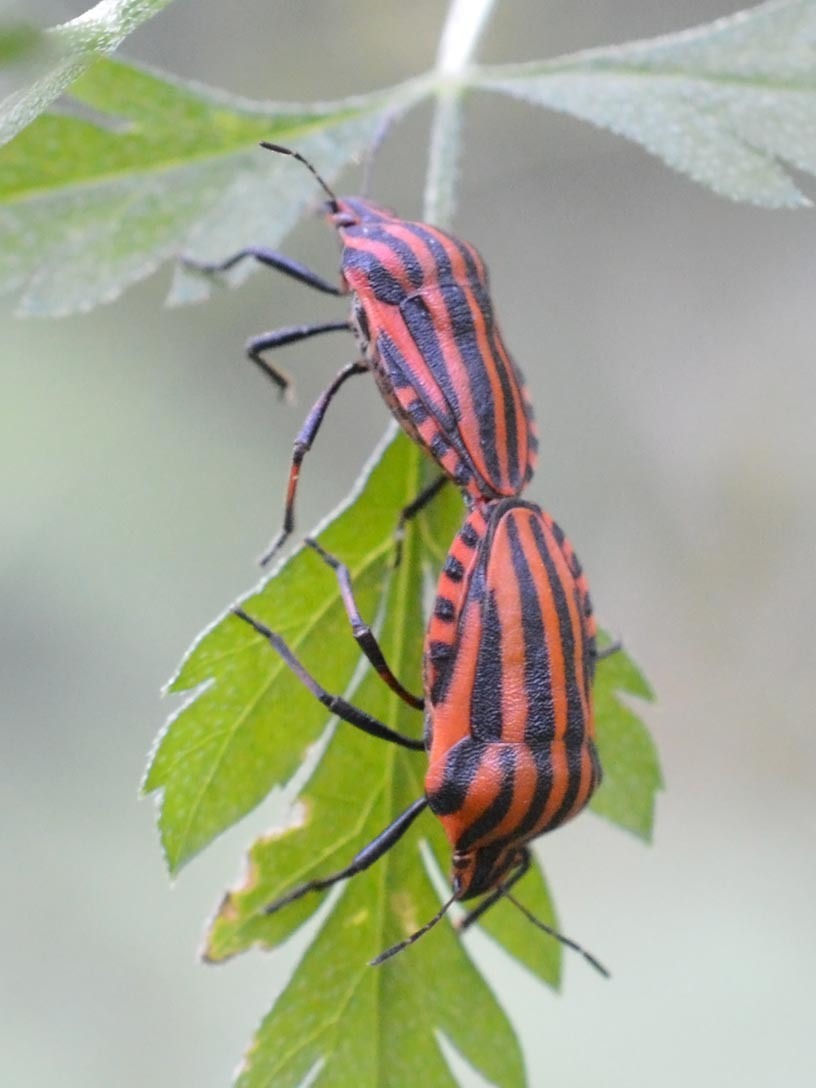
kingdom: Animalia
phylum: Arthropoda
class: Insecta
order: Hemiptera
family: Pentatomidae
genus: Graphosoma
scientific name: Graphosoma italicum
